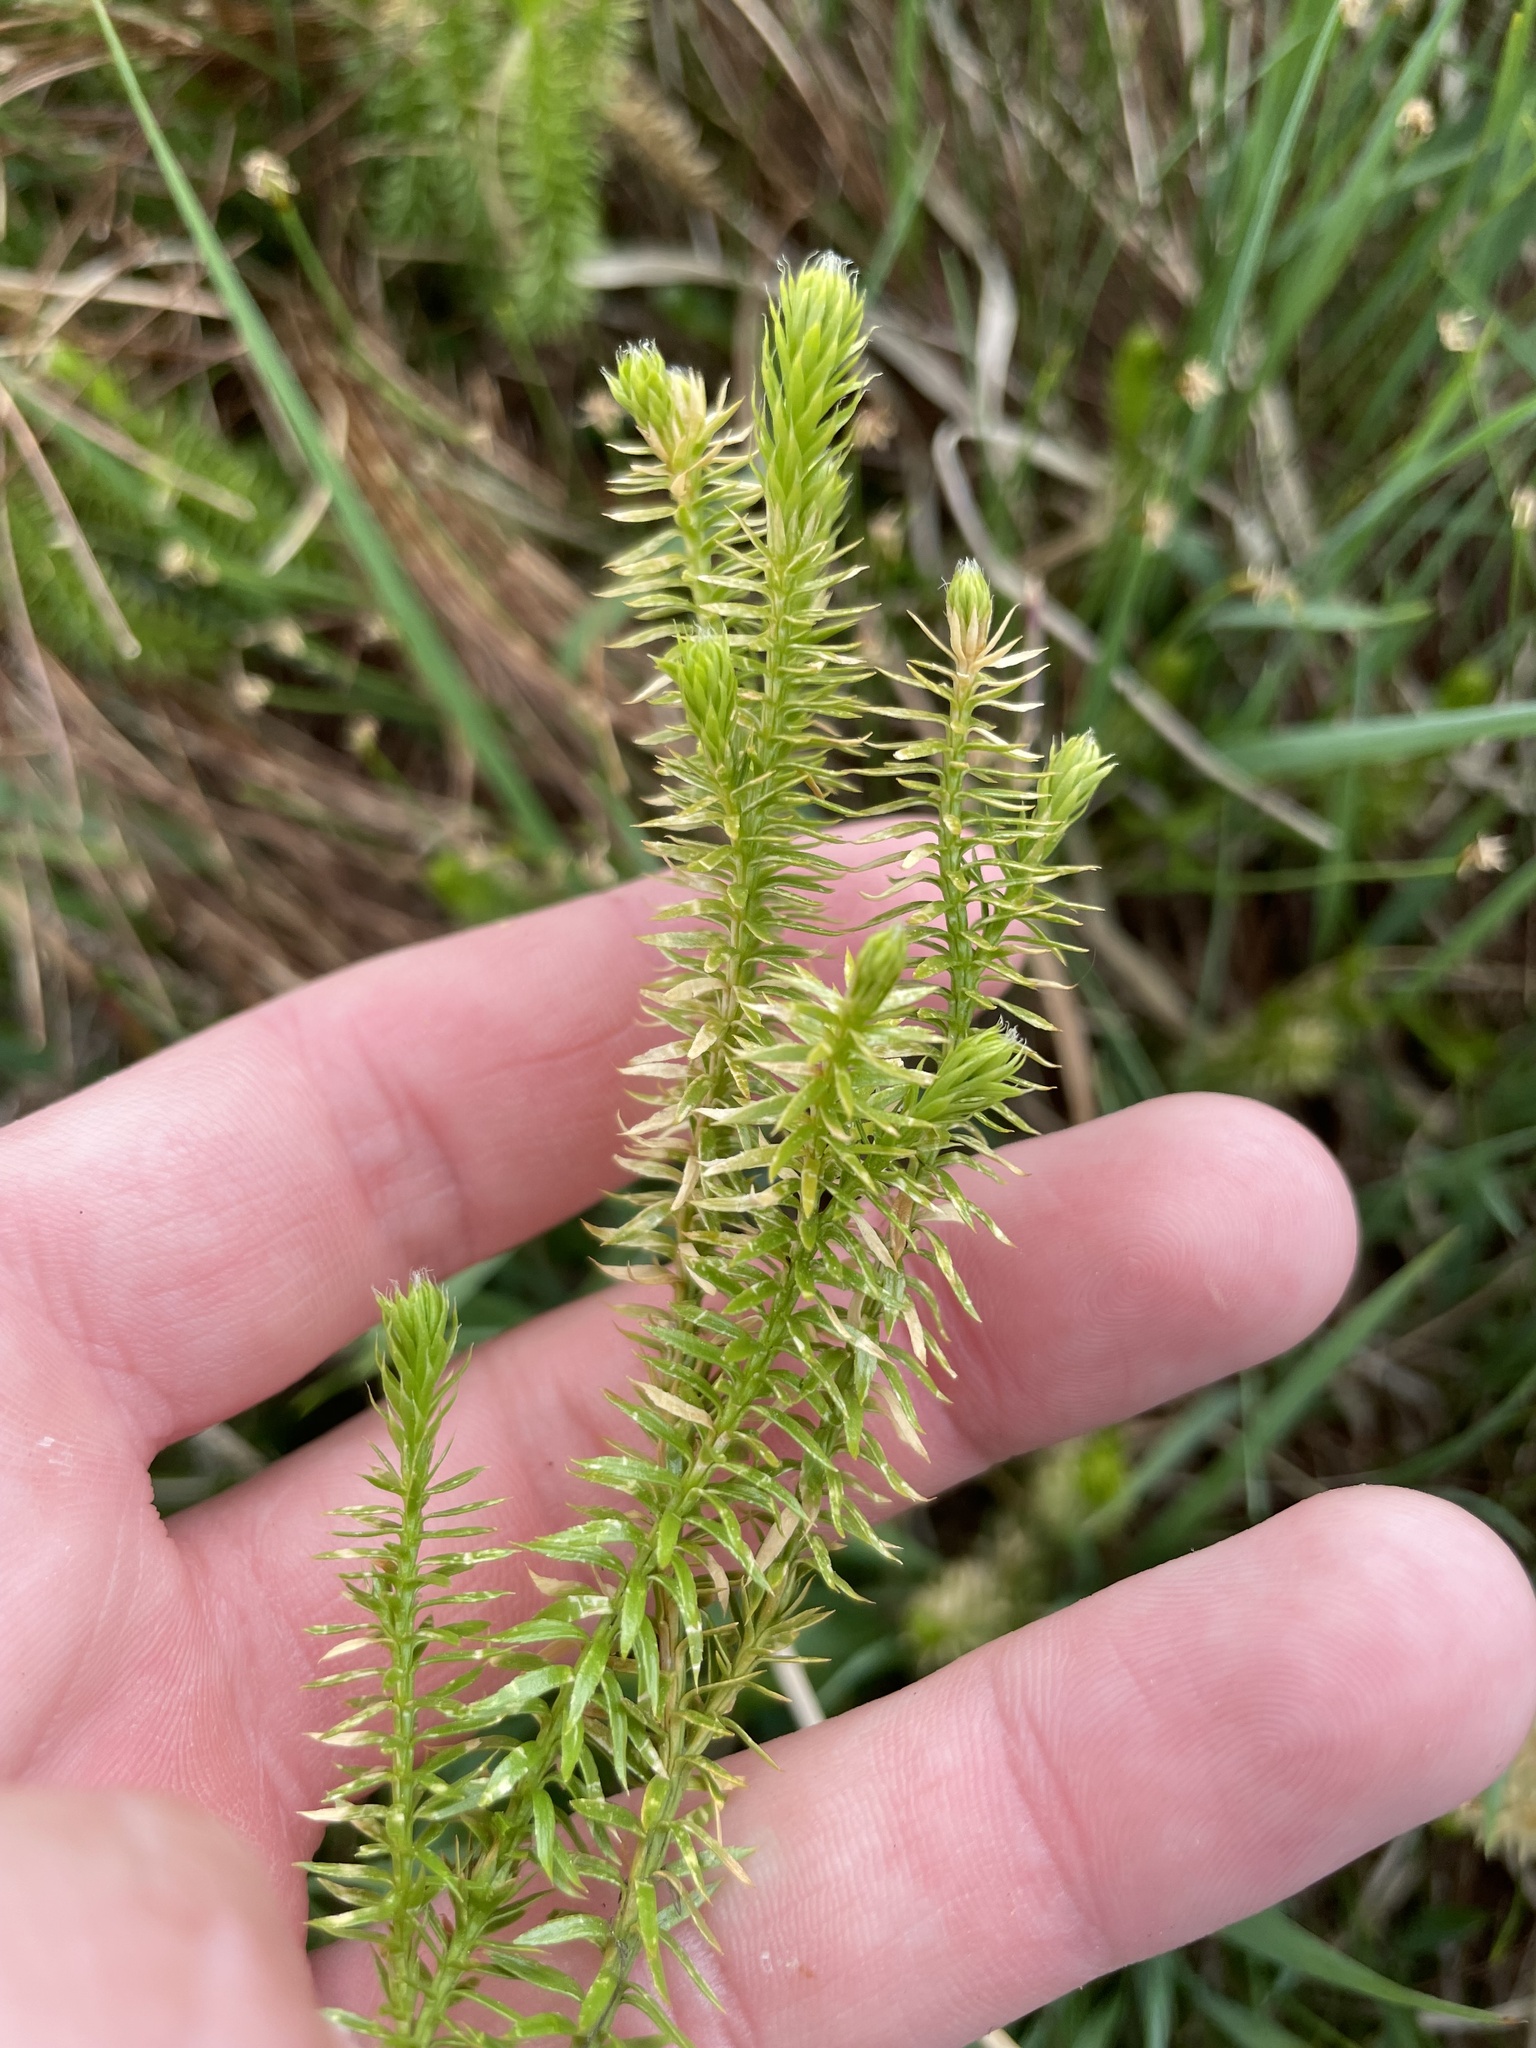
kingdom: Plantae
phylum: Tracheophyta
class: Lycopodiopsida
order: Lycopodiales
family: Lycopodiaceae
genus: Spinulum
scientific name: Spinulum annotinum
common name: Interrupted club-moss
